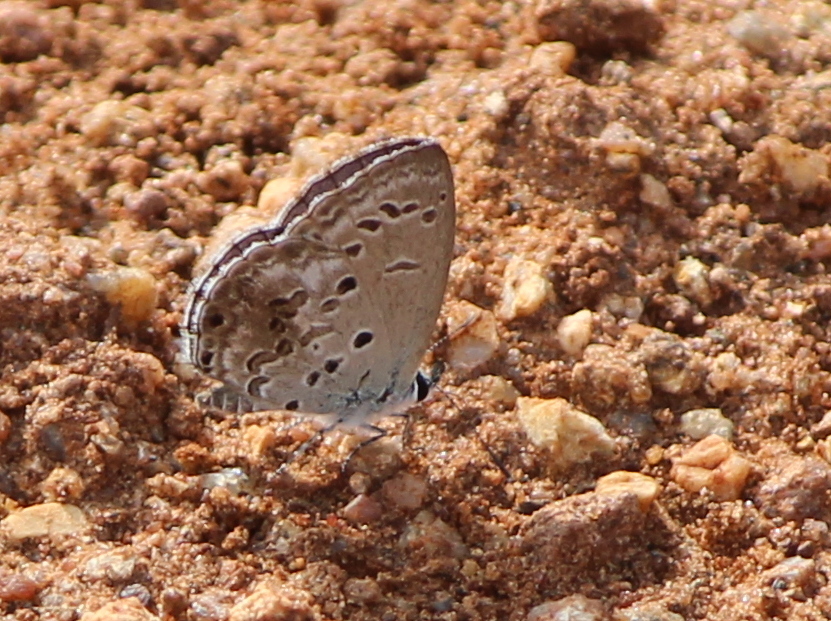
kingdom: Animalia
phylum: Arthropoda
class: Insecta
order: Lepidoptera
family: Lycaenidae
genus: Chilades
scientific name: Chilades laius
